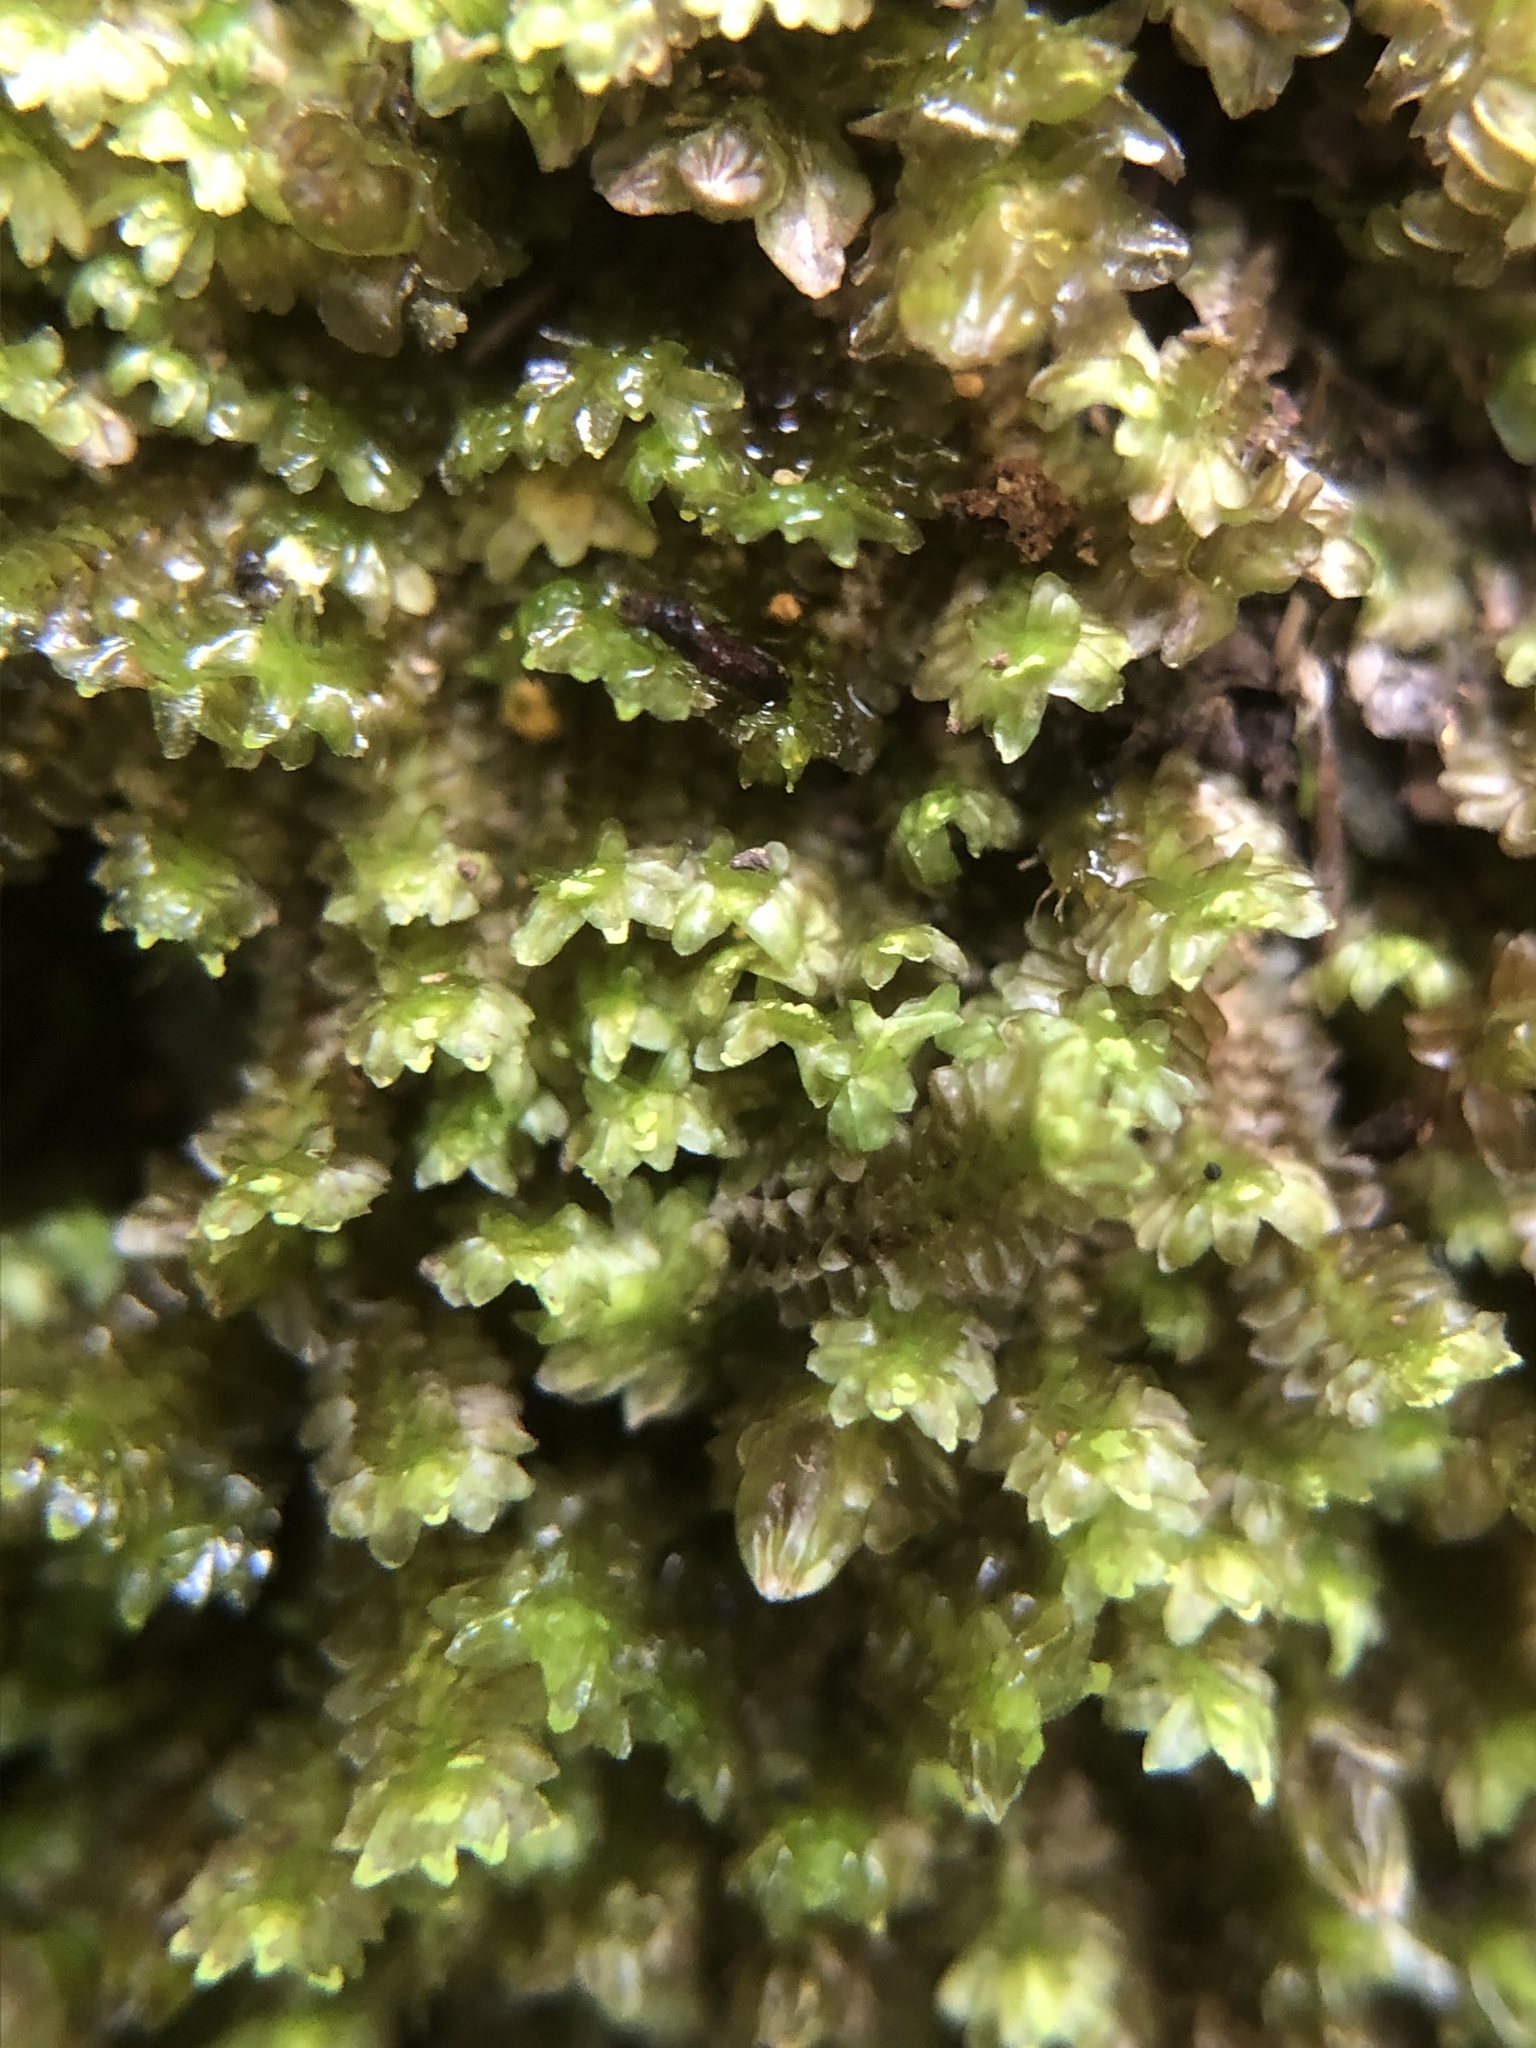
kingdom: Plantae
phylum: Marchantiophyta
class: Jungermanniopsida
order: Jungermanniales
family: Scapaniaceae
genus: Diplophyllum
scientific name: Diplophyllum albicans
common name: White earwort
